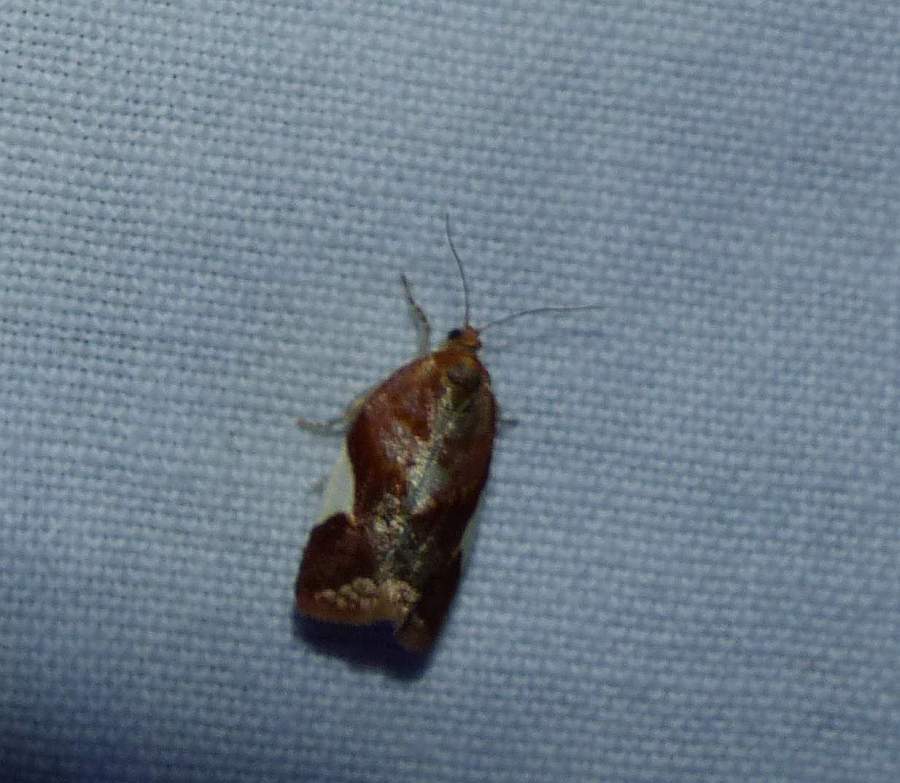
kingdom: Animalia
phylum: Arthropoda
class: Insecta
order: Lepidoptera
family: Tortricidae
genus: Clepsis
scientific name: Clepsis persicana
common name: White triangle tortrix
